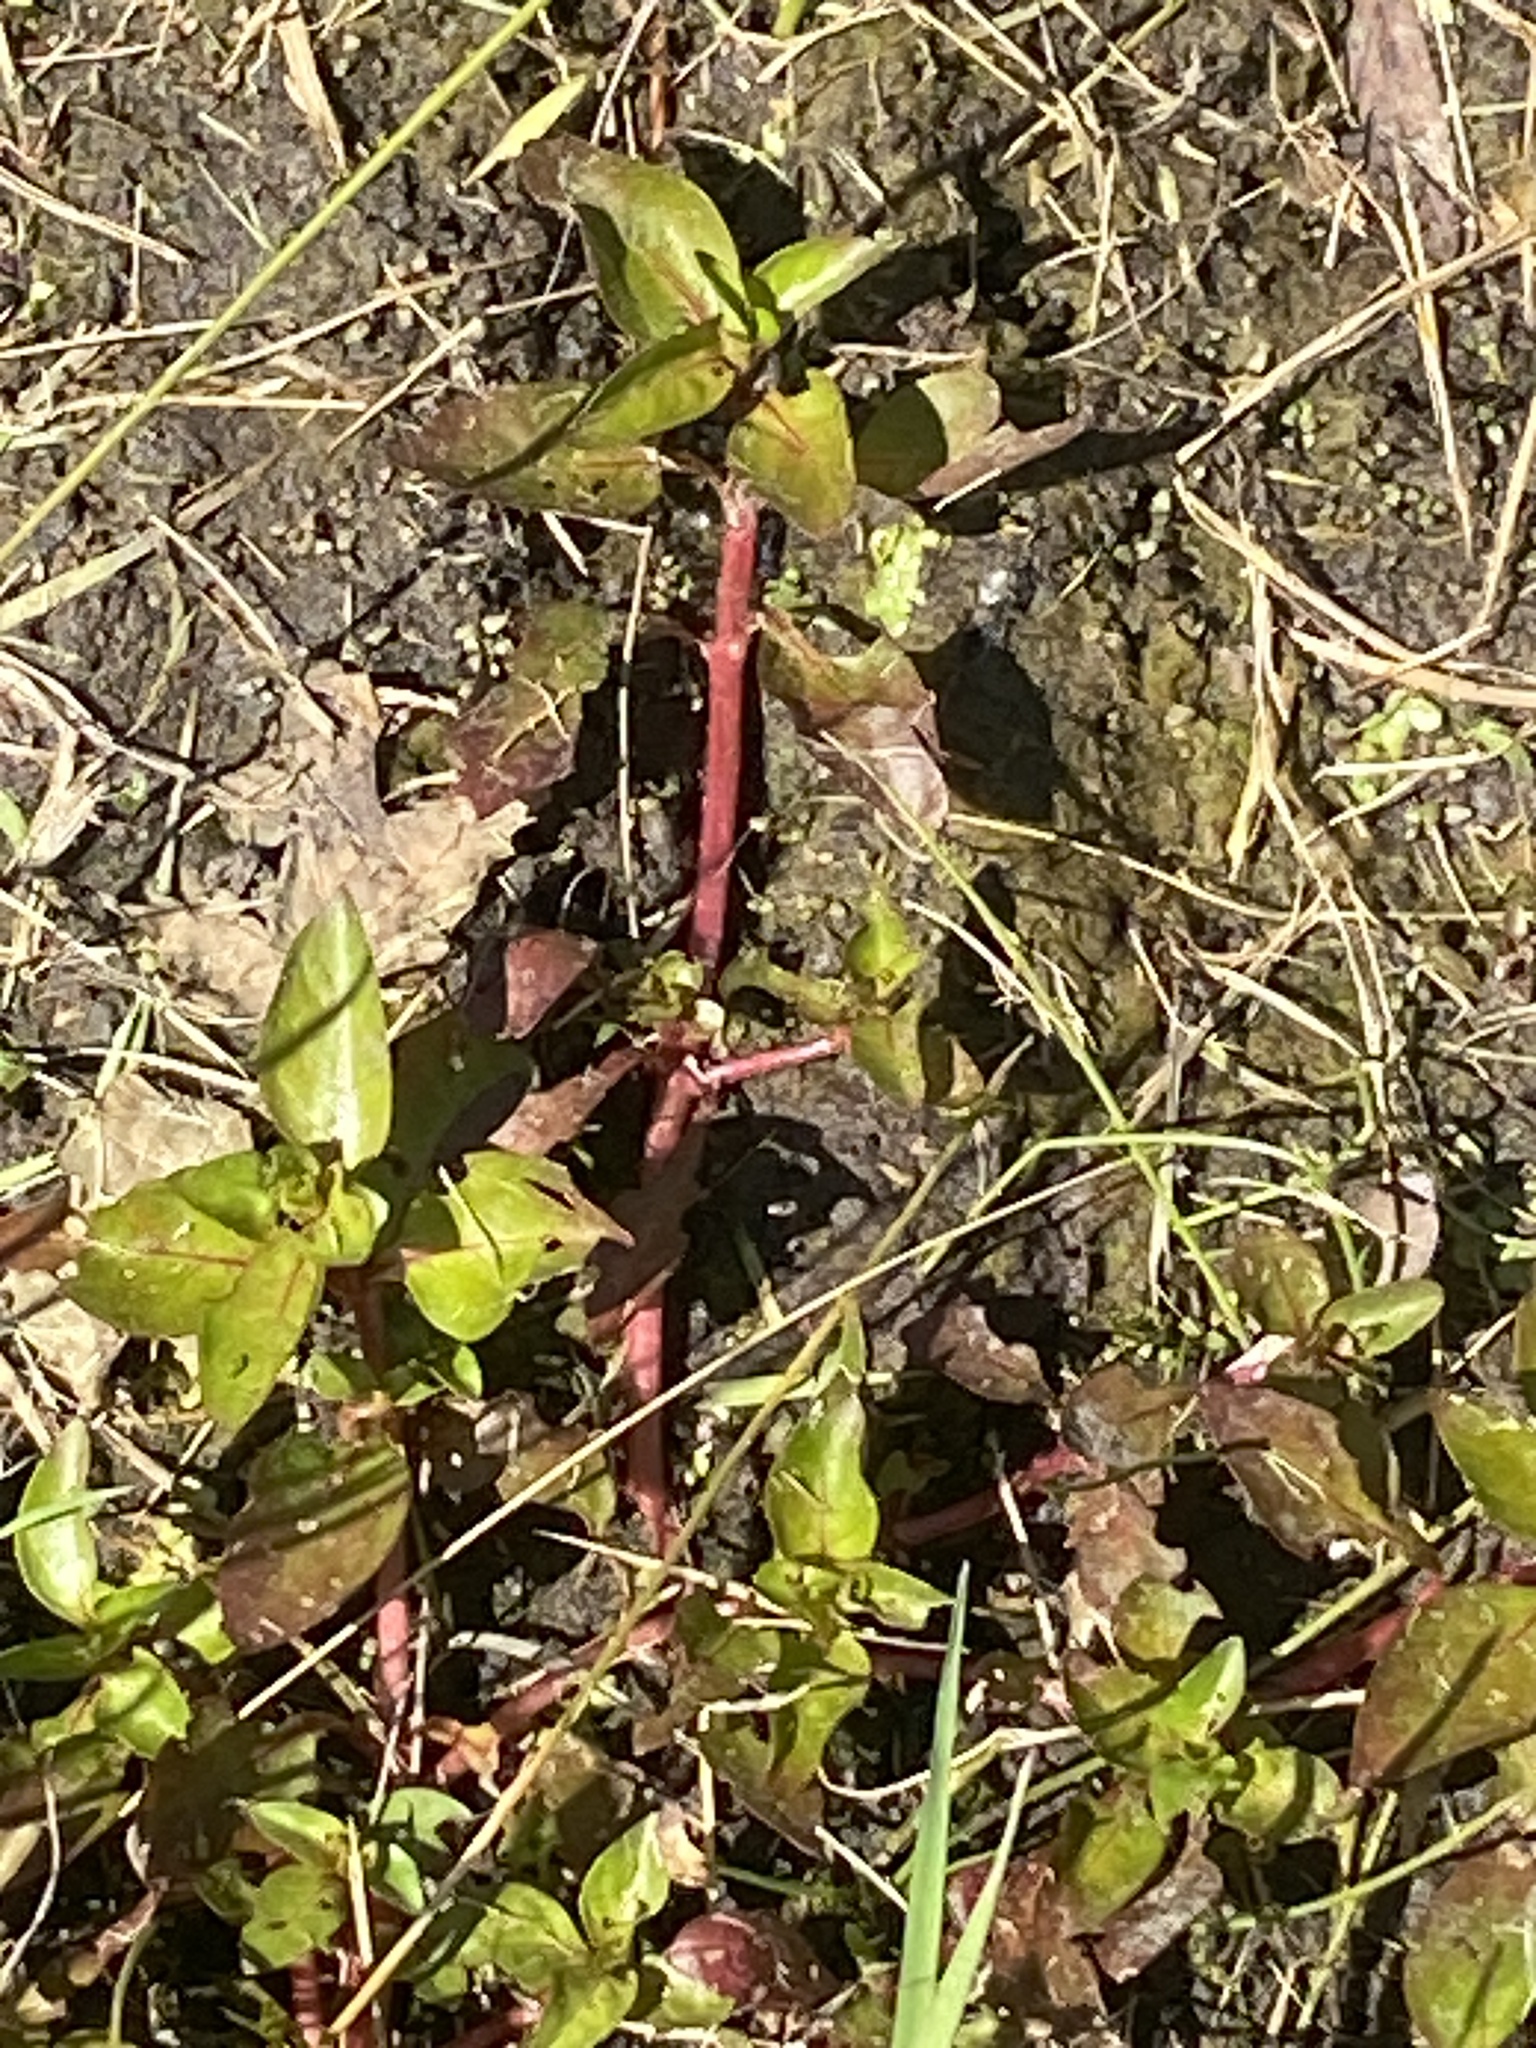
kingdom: Plantae
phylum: Tracheophyta
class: Magnoliopsida
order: Myrtales
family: Onagraceae
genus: Ludwigia
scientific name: Ludwigia palustris
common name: Hampshire-purslane
